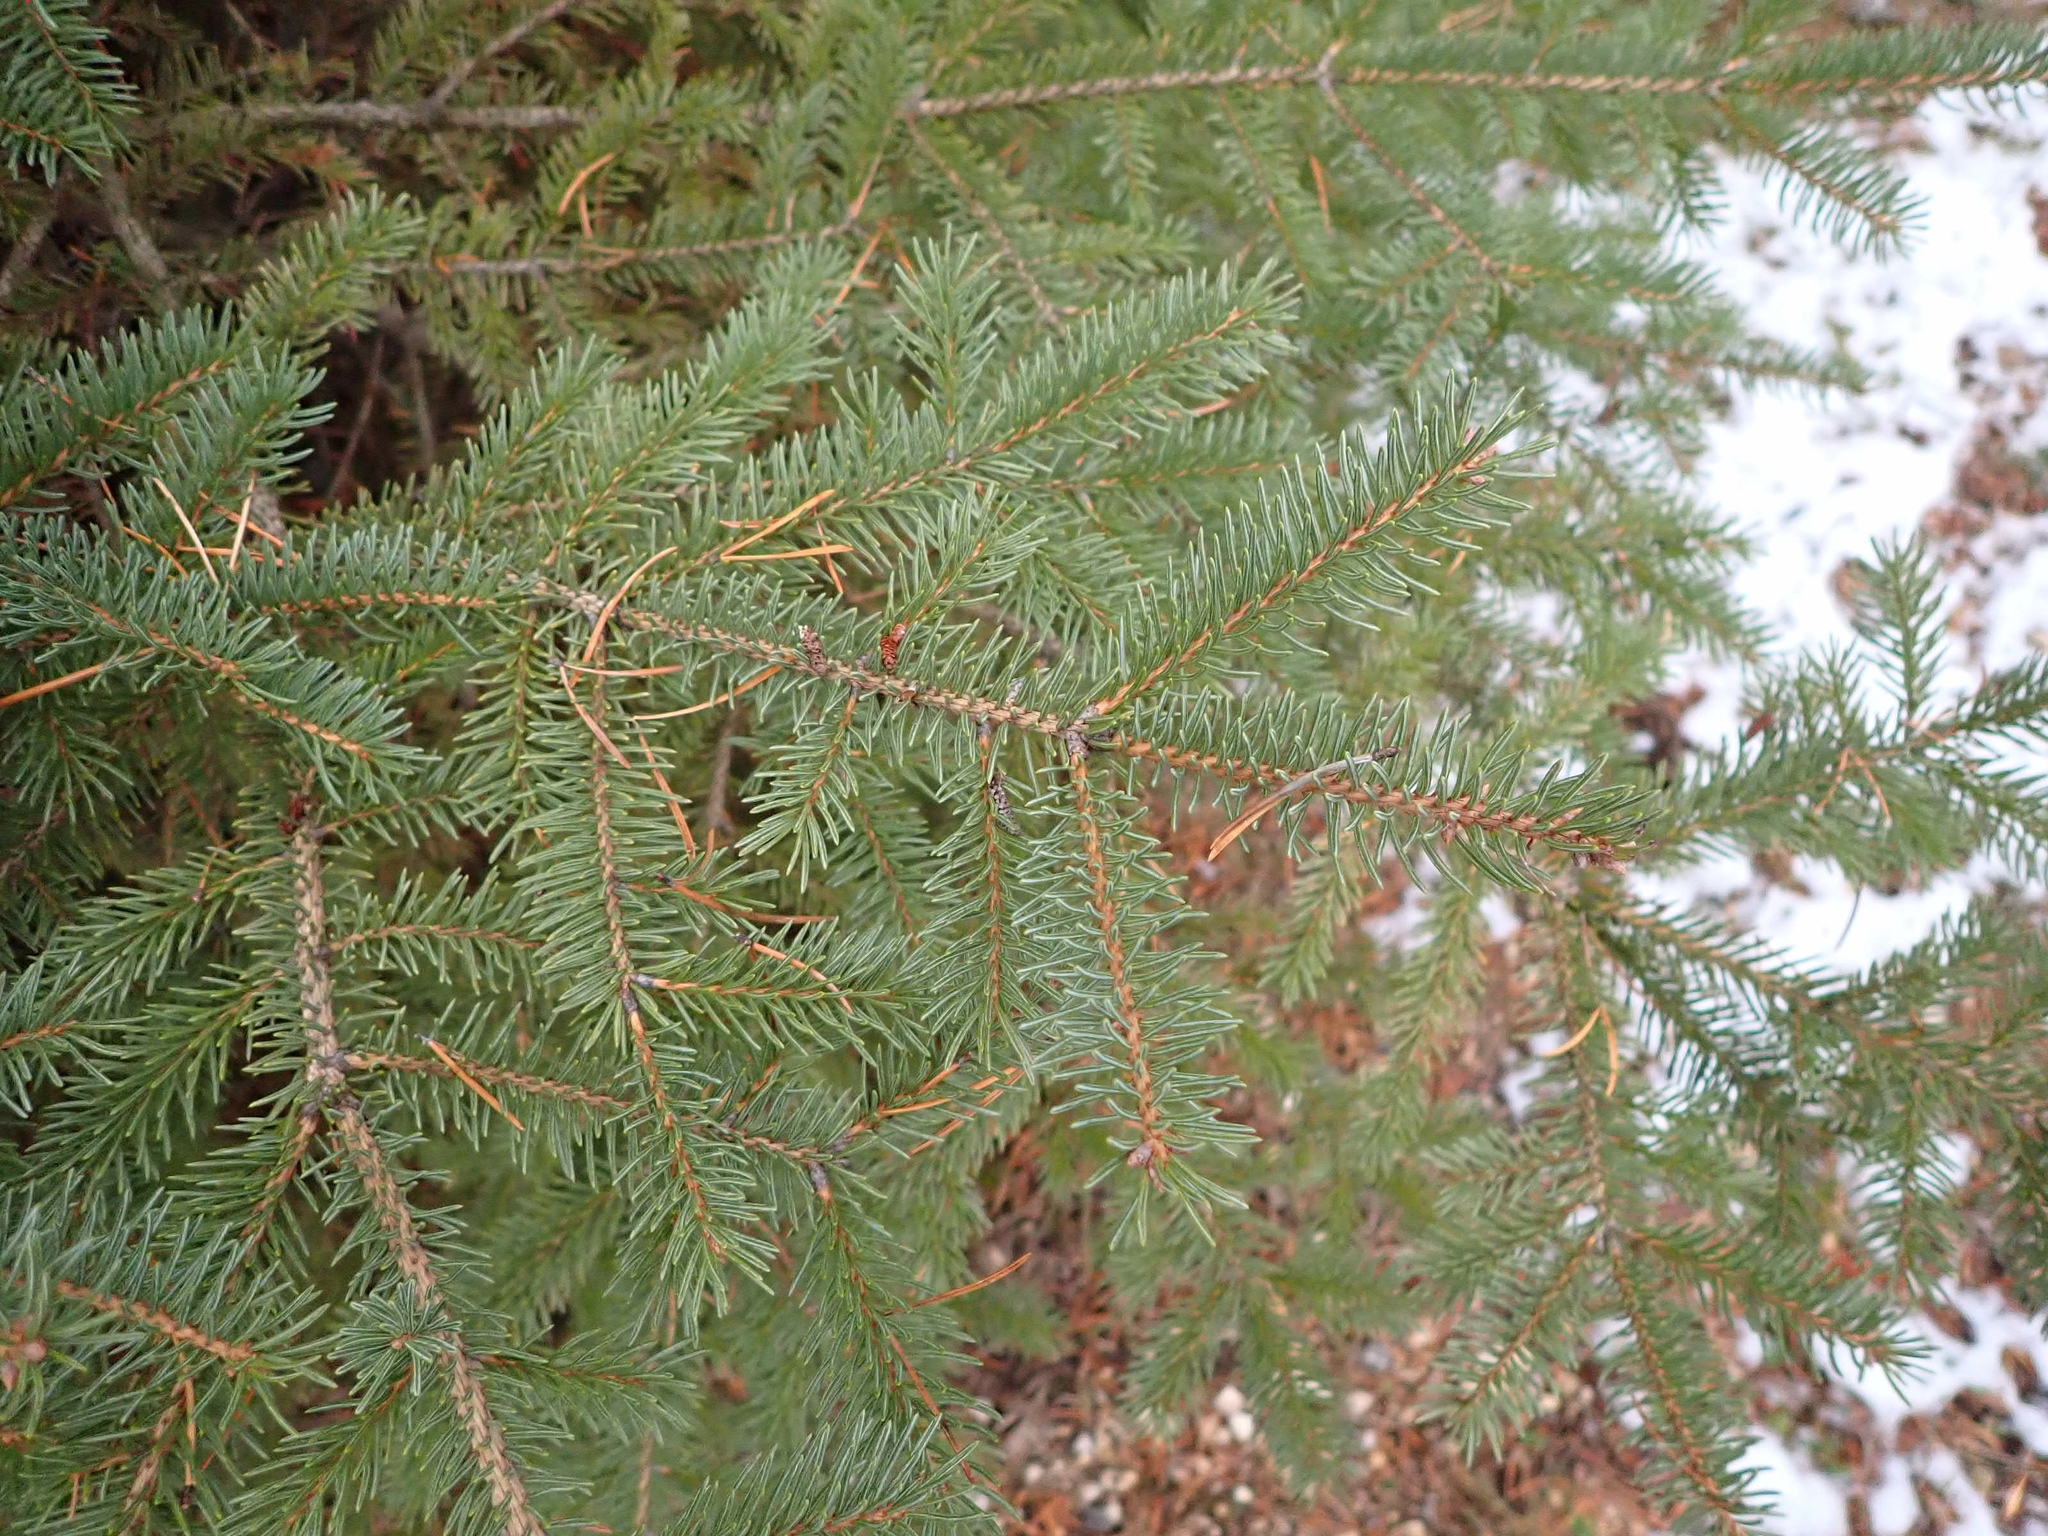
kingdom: Plantae
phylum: Tracheophyta
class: Pinopsida
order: Pinales
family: Pinaceae
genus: Picea
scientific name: Picea glauca
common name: White spruce
